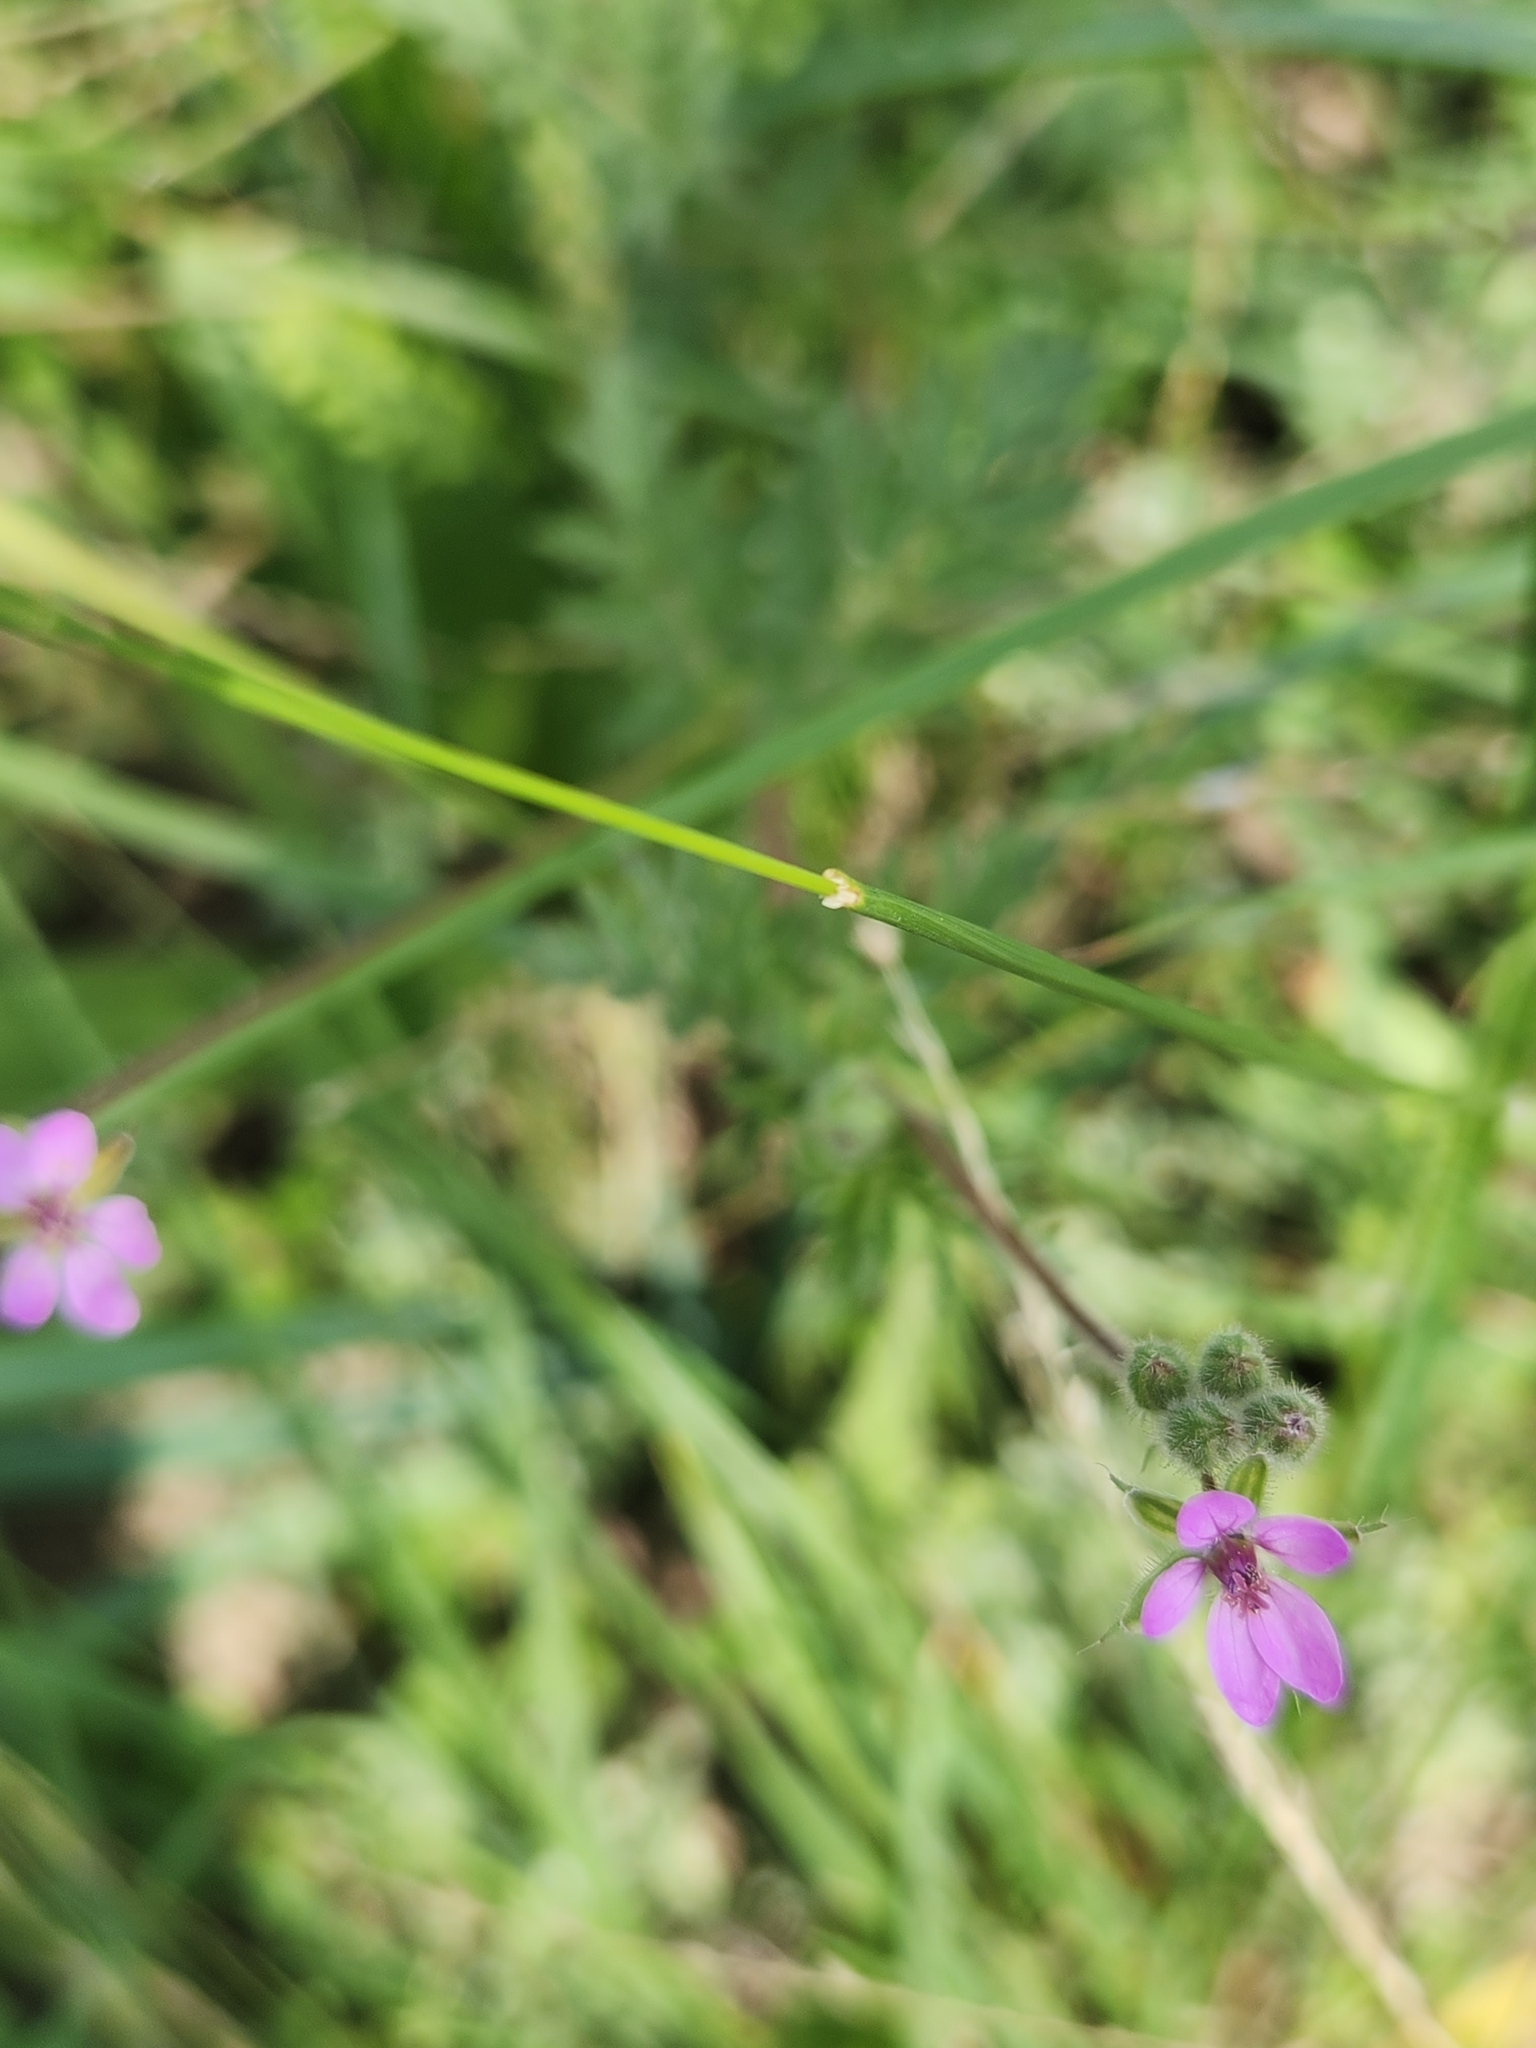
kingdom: Plantae
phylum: Tracheophyta
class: Magnoliopsida
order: Geraniales
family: Geraniaceae
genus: Erodium
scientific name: Erodium cicutarium
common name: Common stork's-bill
